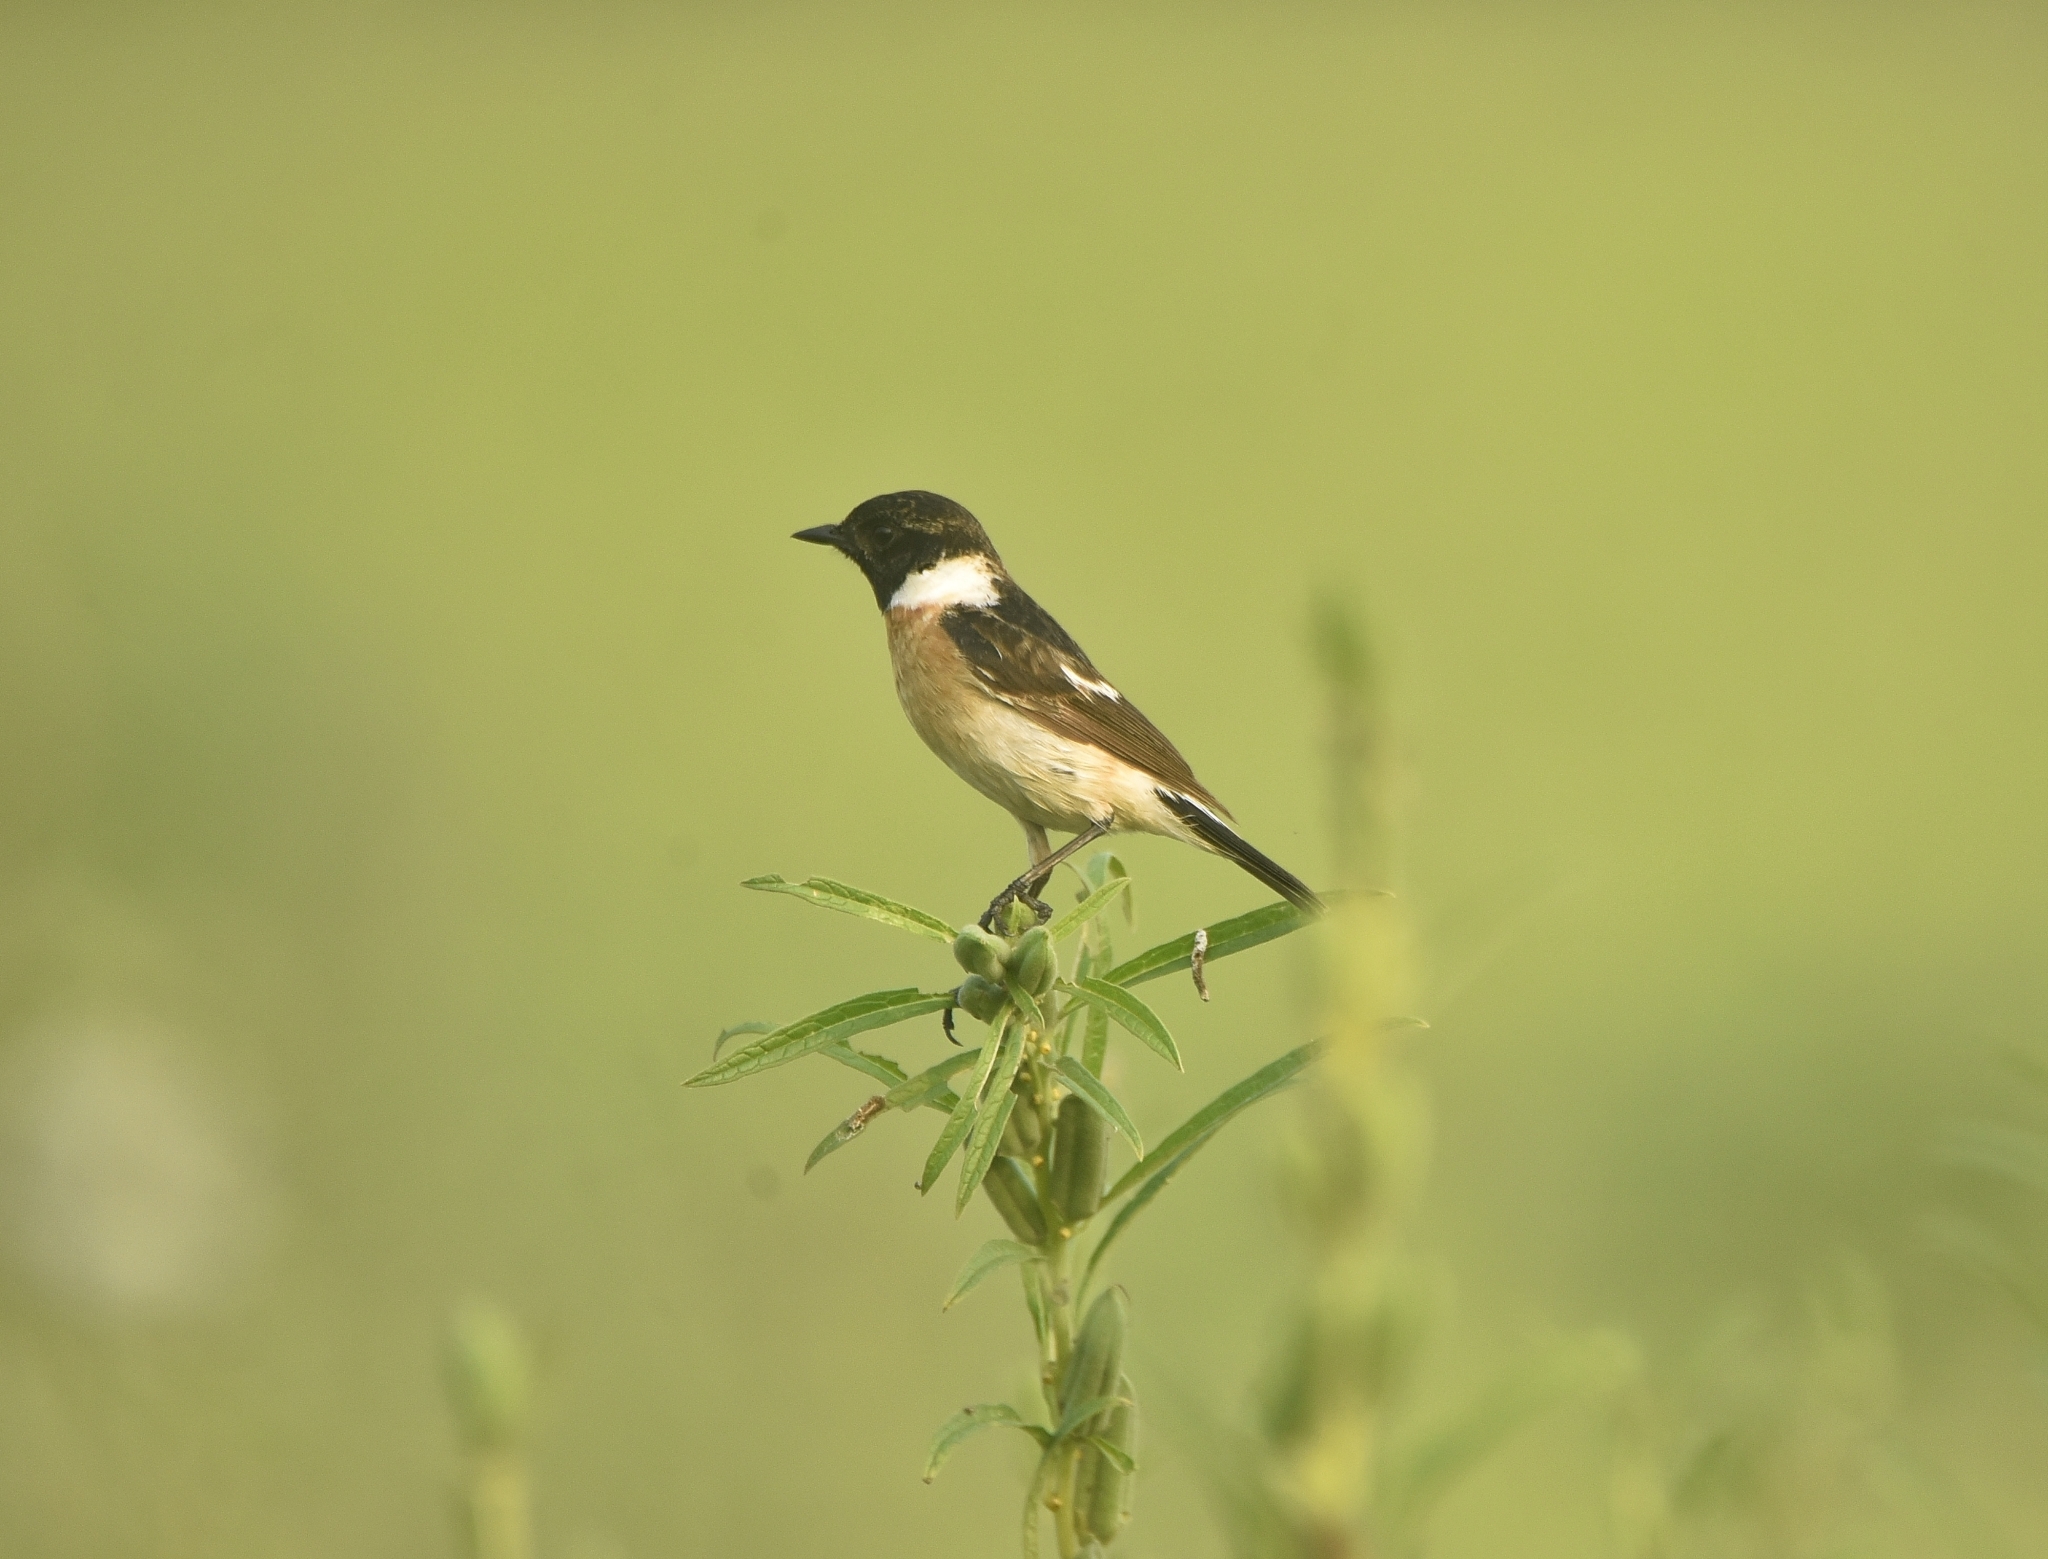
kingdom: Animalia
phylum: Chordata
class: Aves
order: Passeriformes
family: Muscicapidae
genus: Saxicola
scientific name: Saxicola maurus
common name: Siberian stonechat
